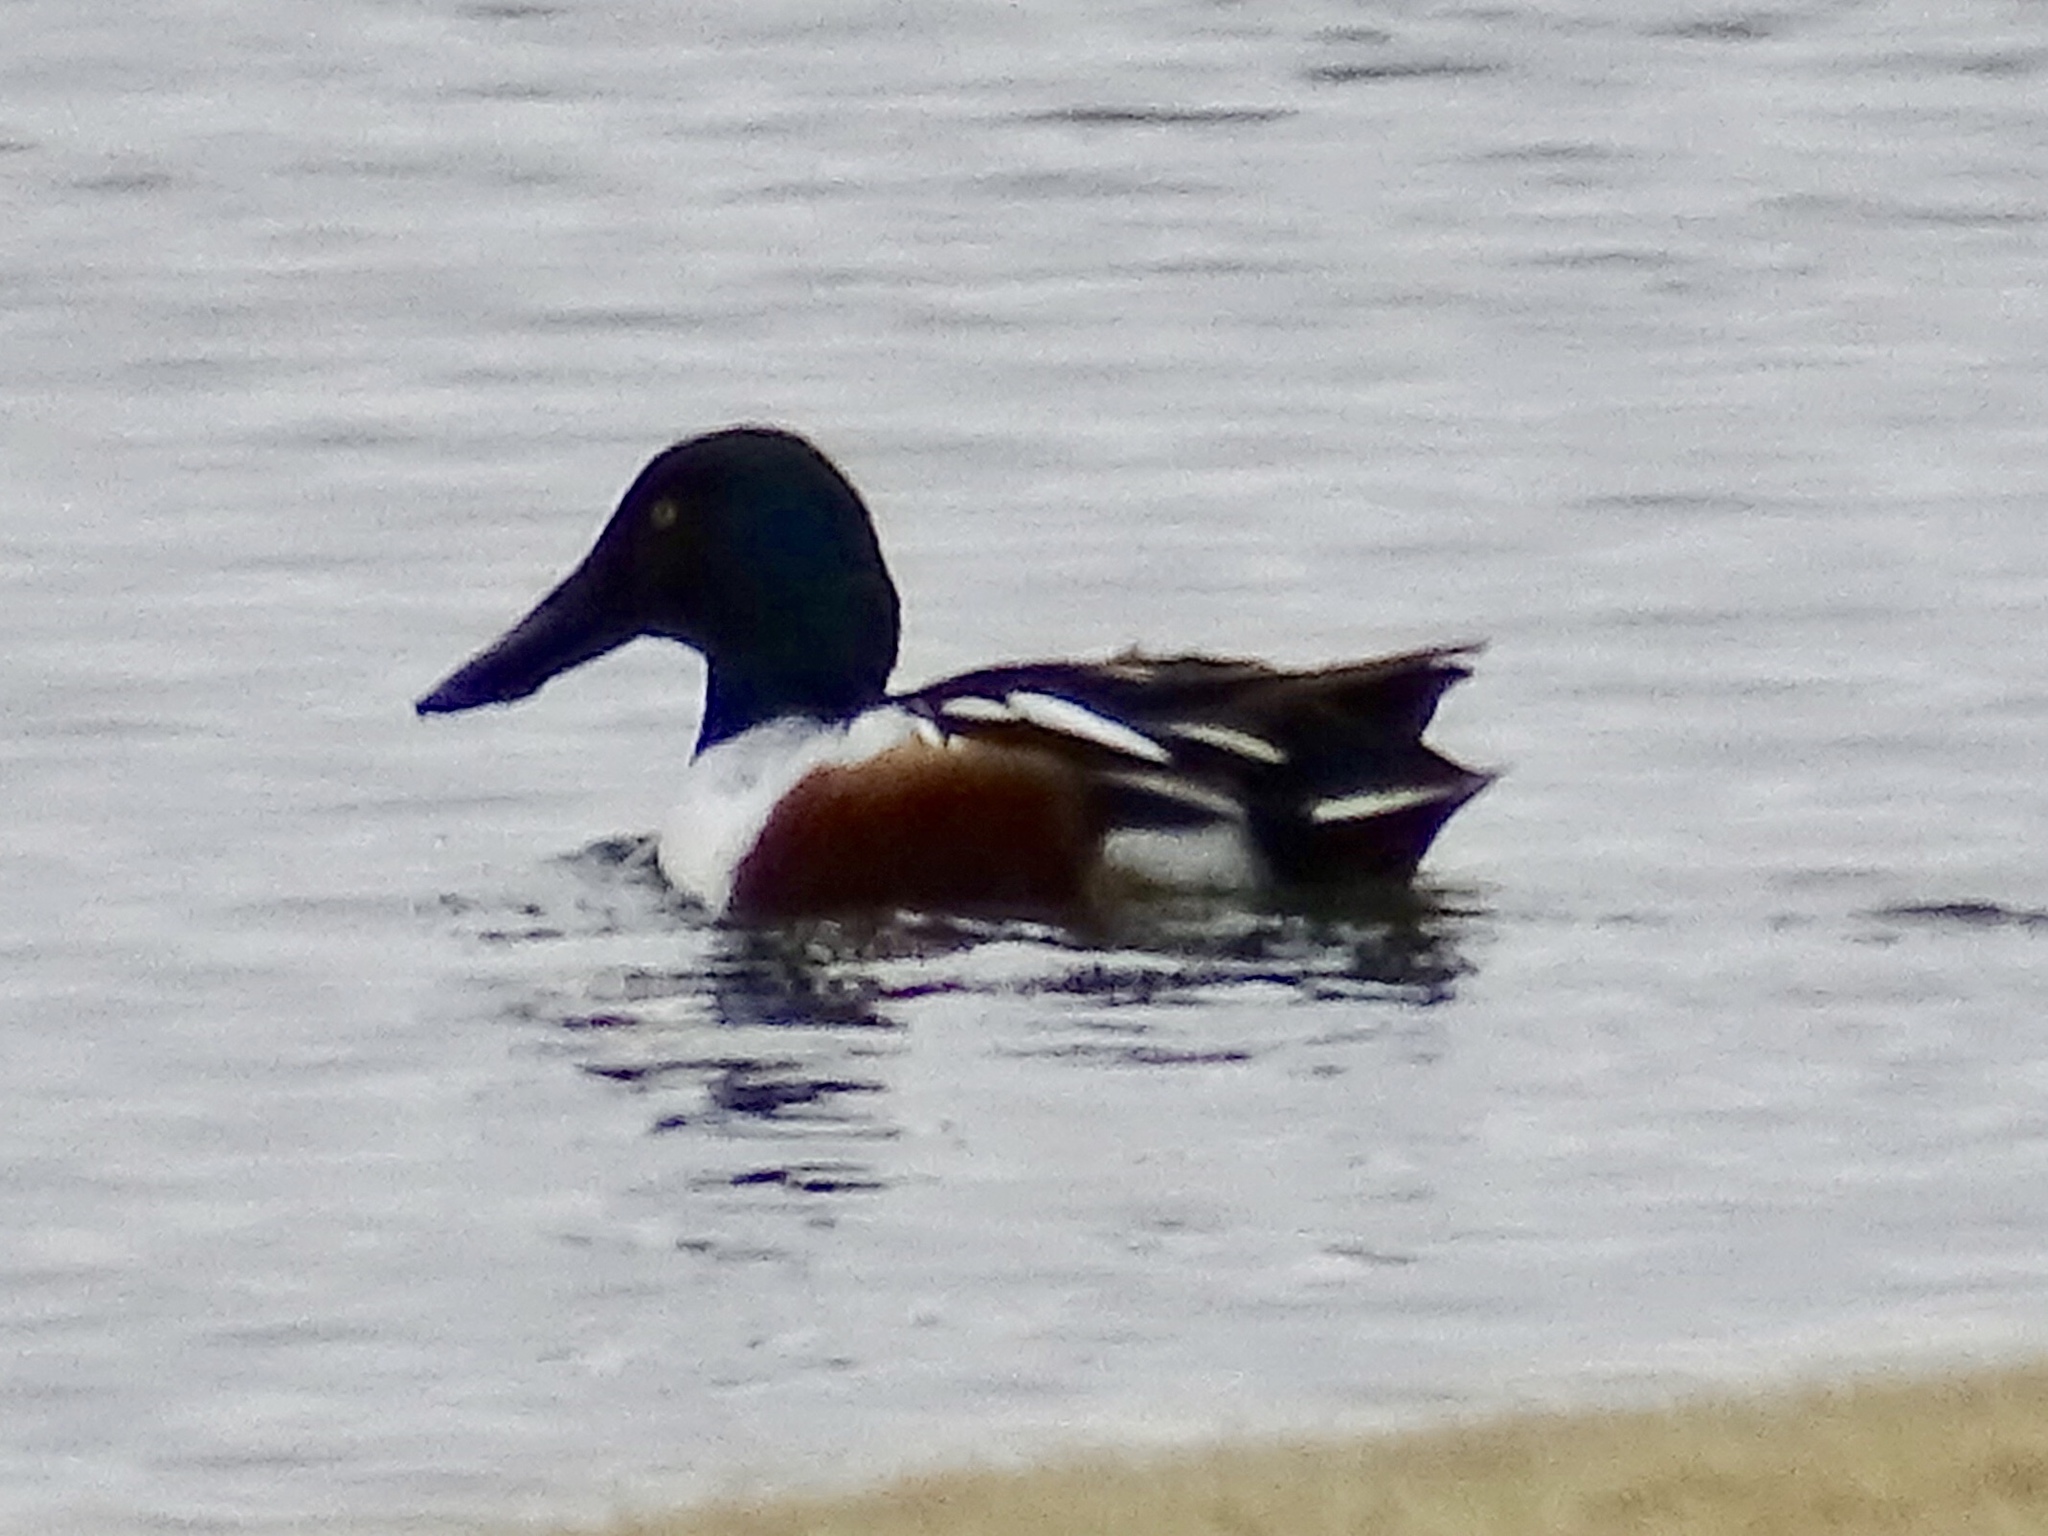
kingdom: Animalia
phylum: Chordata
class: Aves
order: Anseriformes
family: Anatidae
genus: Spatula
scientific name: Spatula clypeata
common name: Northern shoveler
